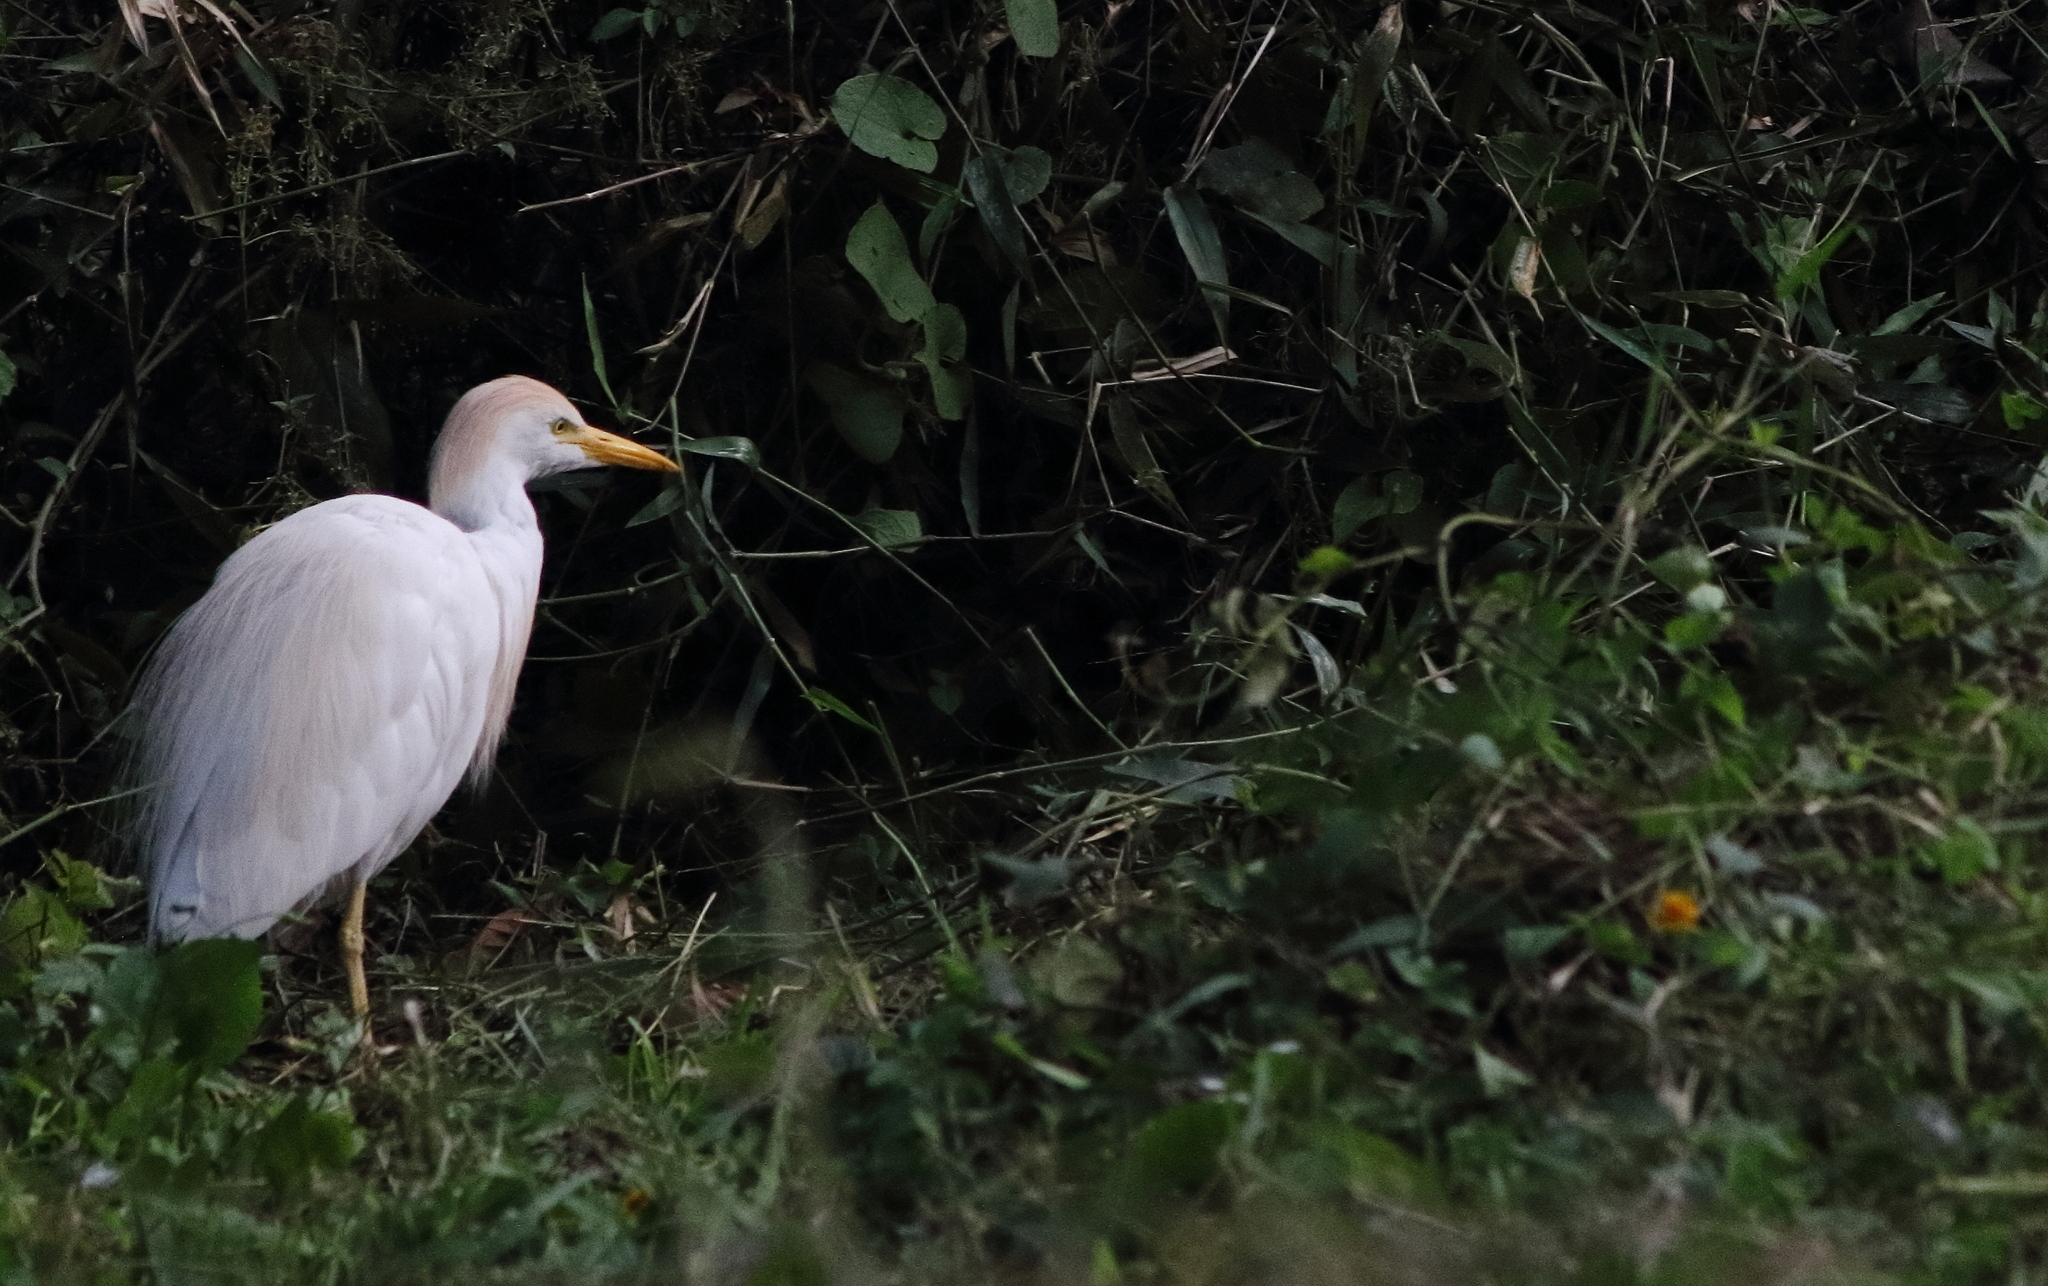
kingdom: Animalia
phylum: Chordata
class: Aves
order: Pelecaniformes
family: Ardeidae
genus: Bubulcus
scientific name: Bubulcus ibis
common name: Cattle egret
